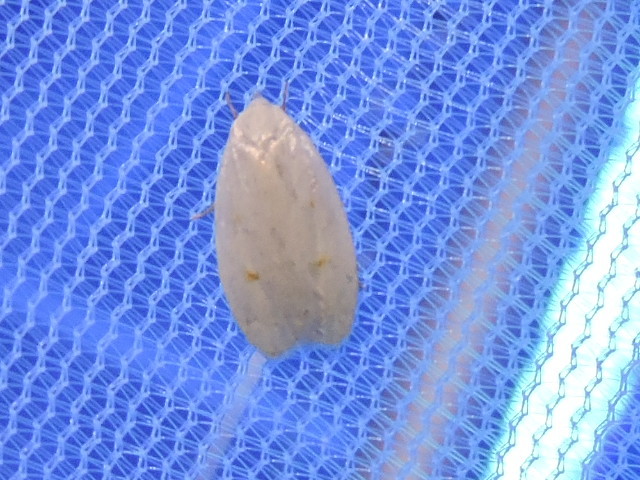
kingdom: Animalia
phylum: Arthropoda
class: Insecta
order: Lepidoptera
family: Peleopodidae
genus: Durrantia
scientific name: Durrantia piperatella
